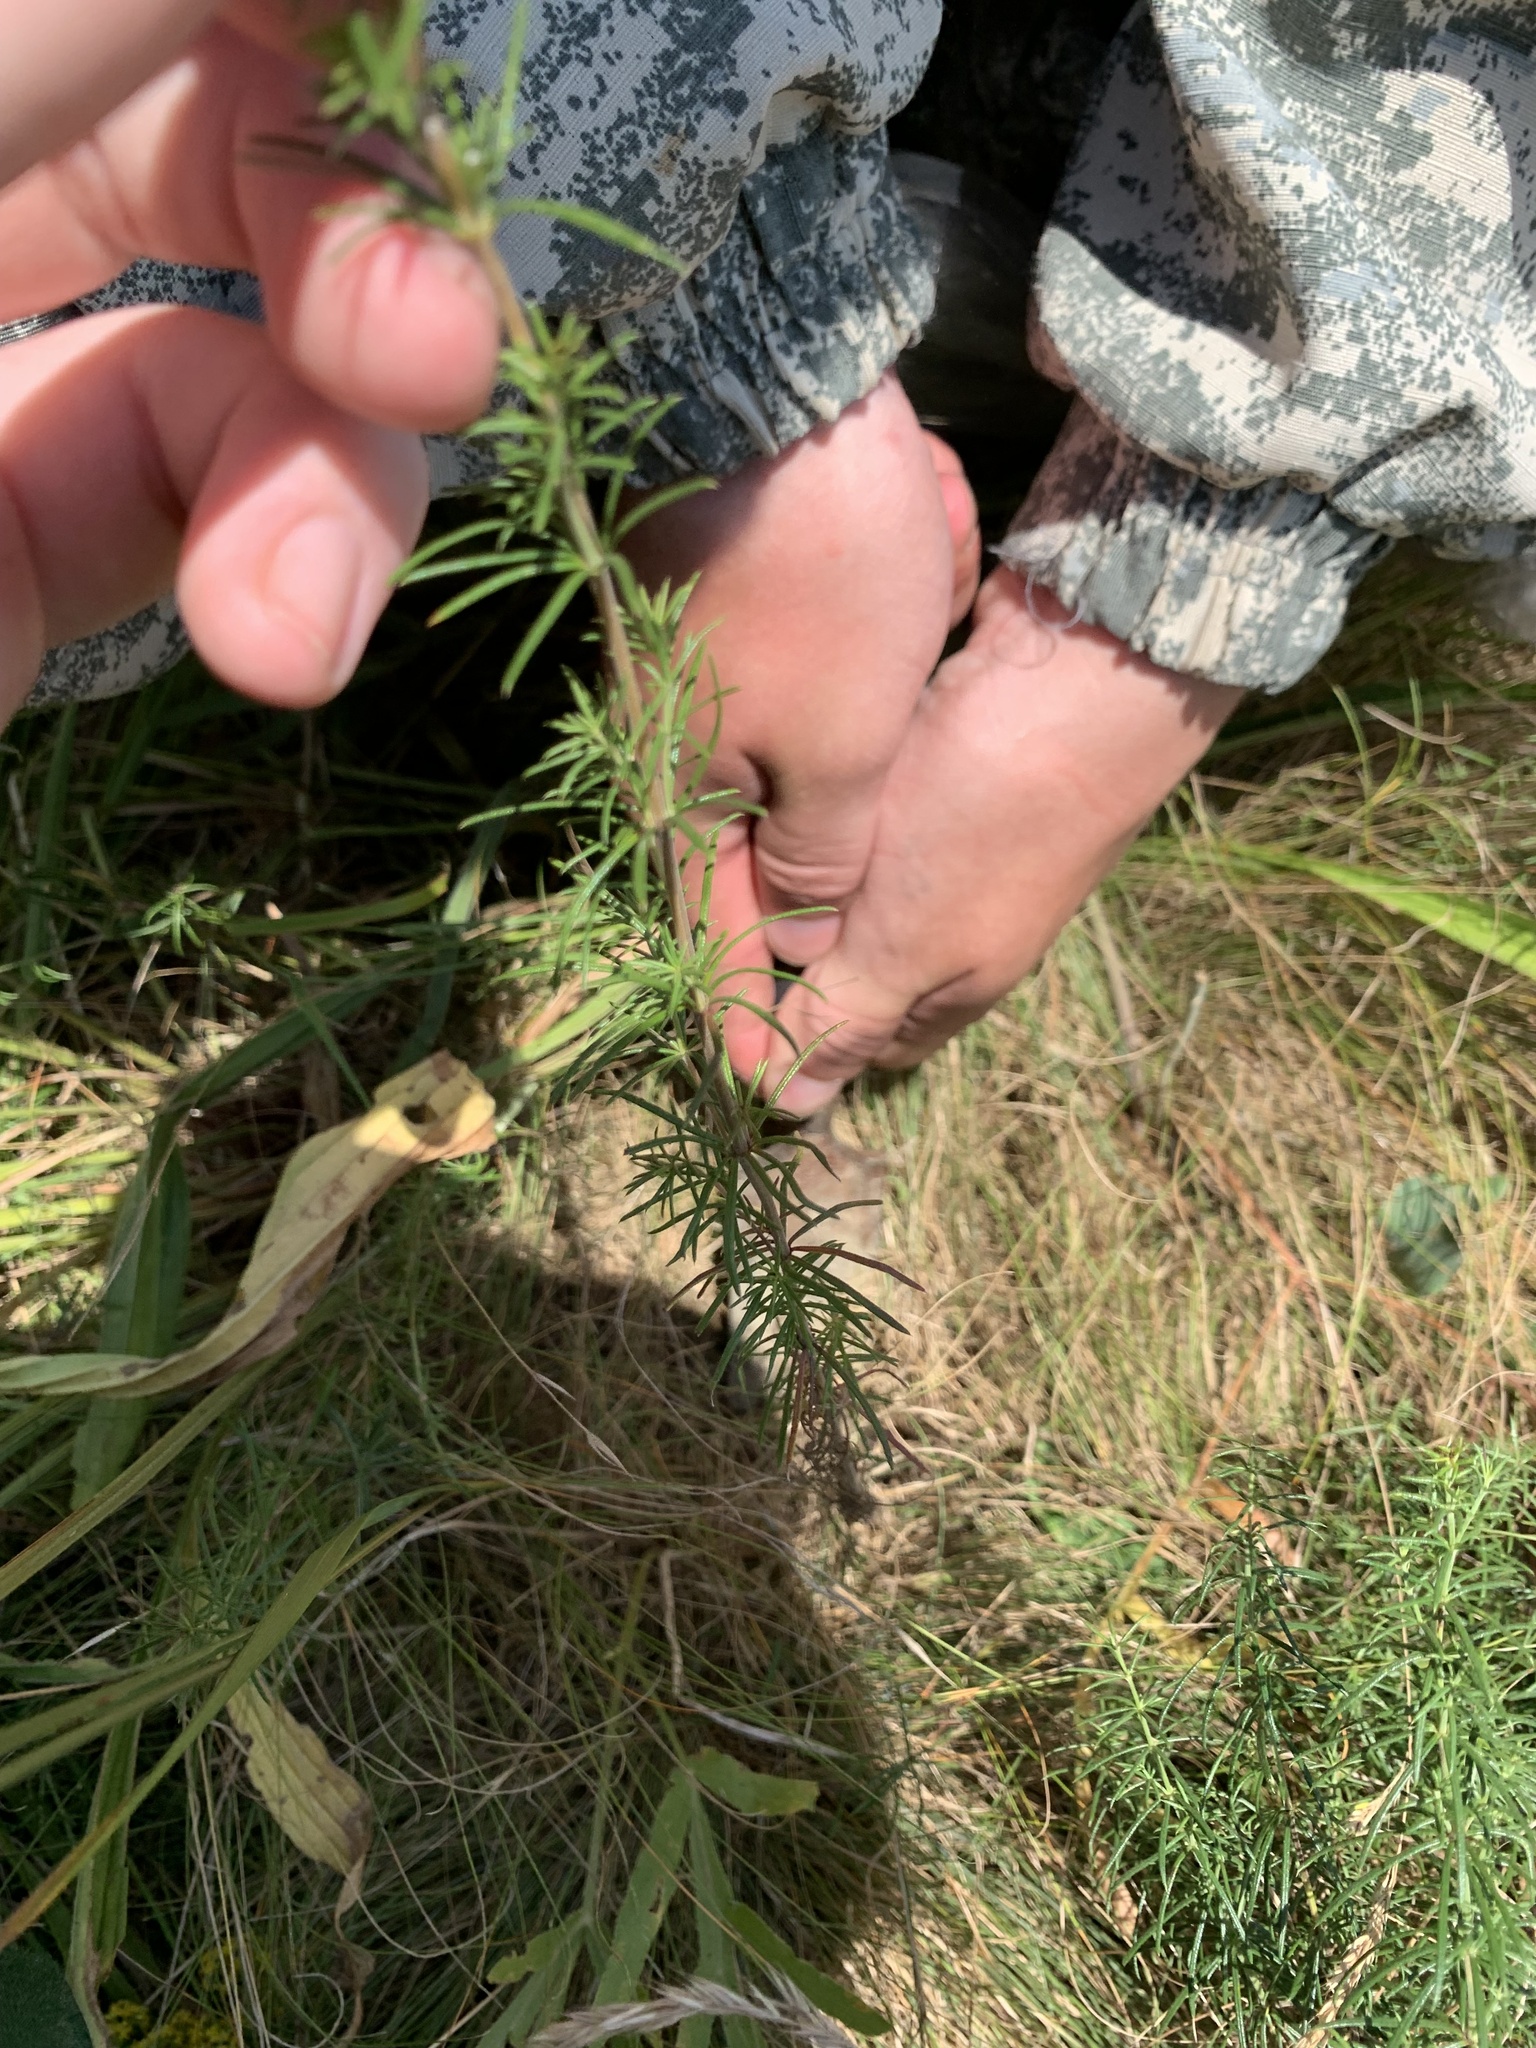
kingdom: Plantae
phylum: Tracheophyta
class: Magnoliopsida
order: Gentianales
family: Rubiaceae
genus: Galium
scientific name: Galium verum
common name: Lady's bedstraw
